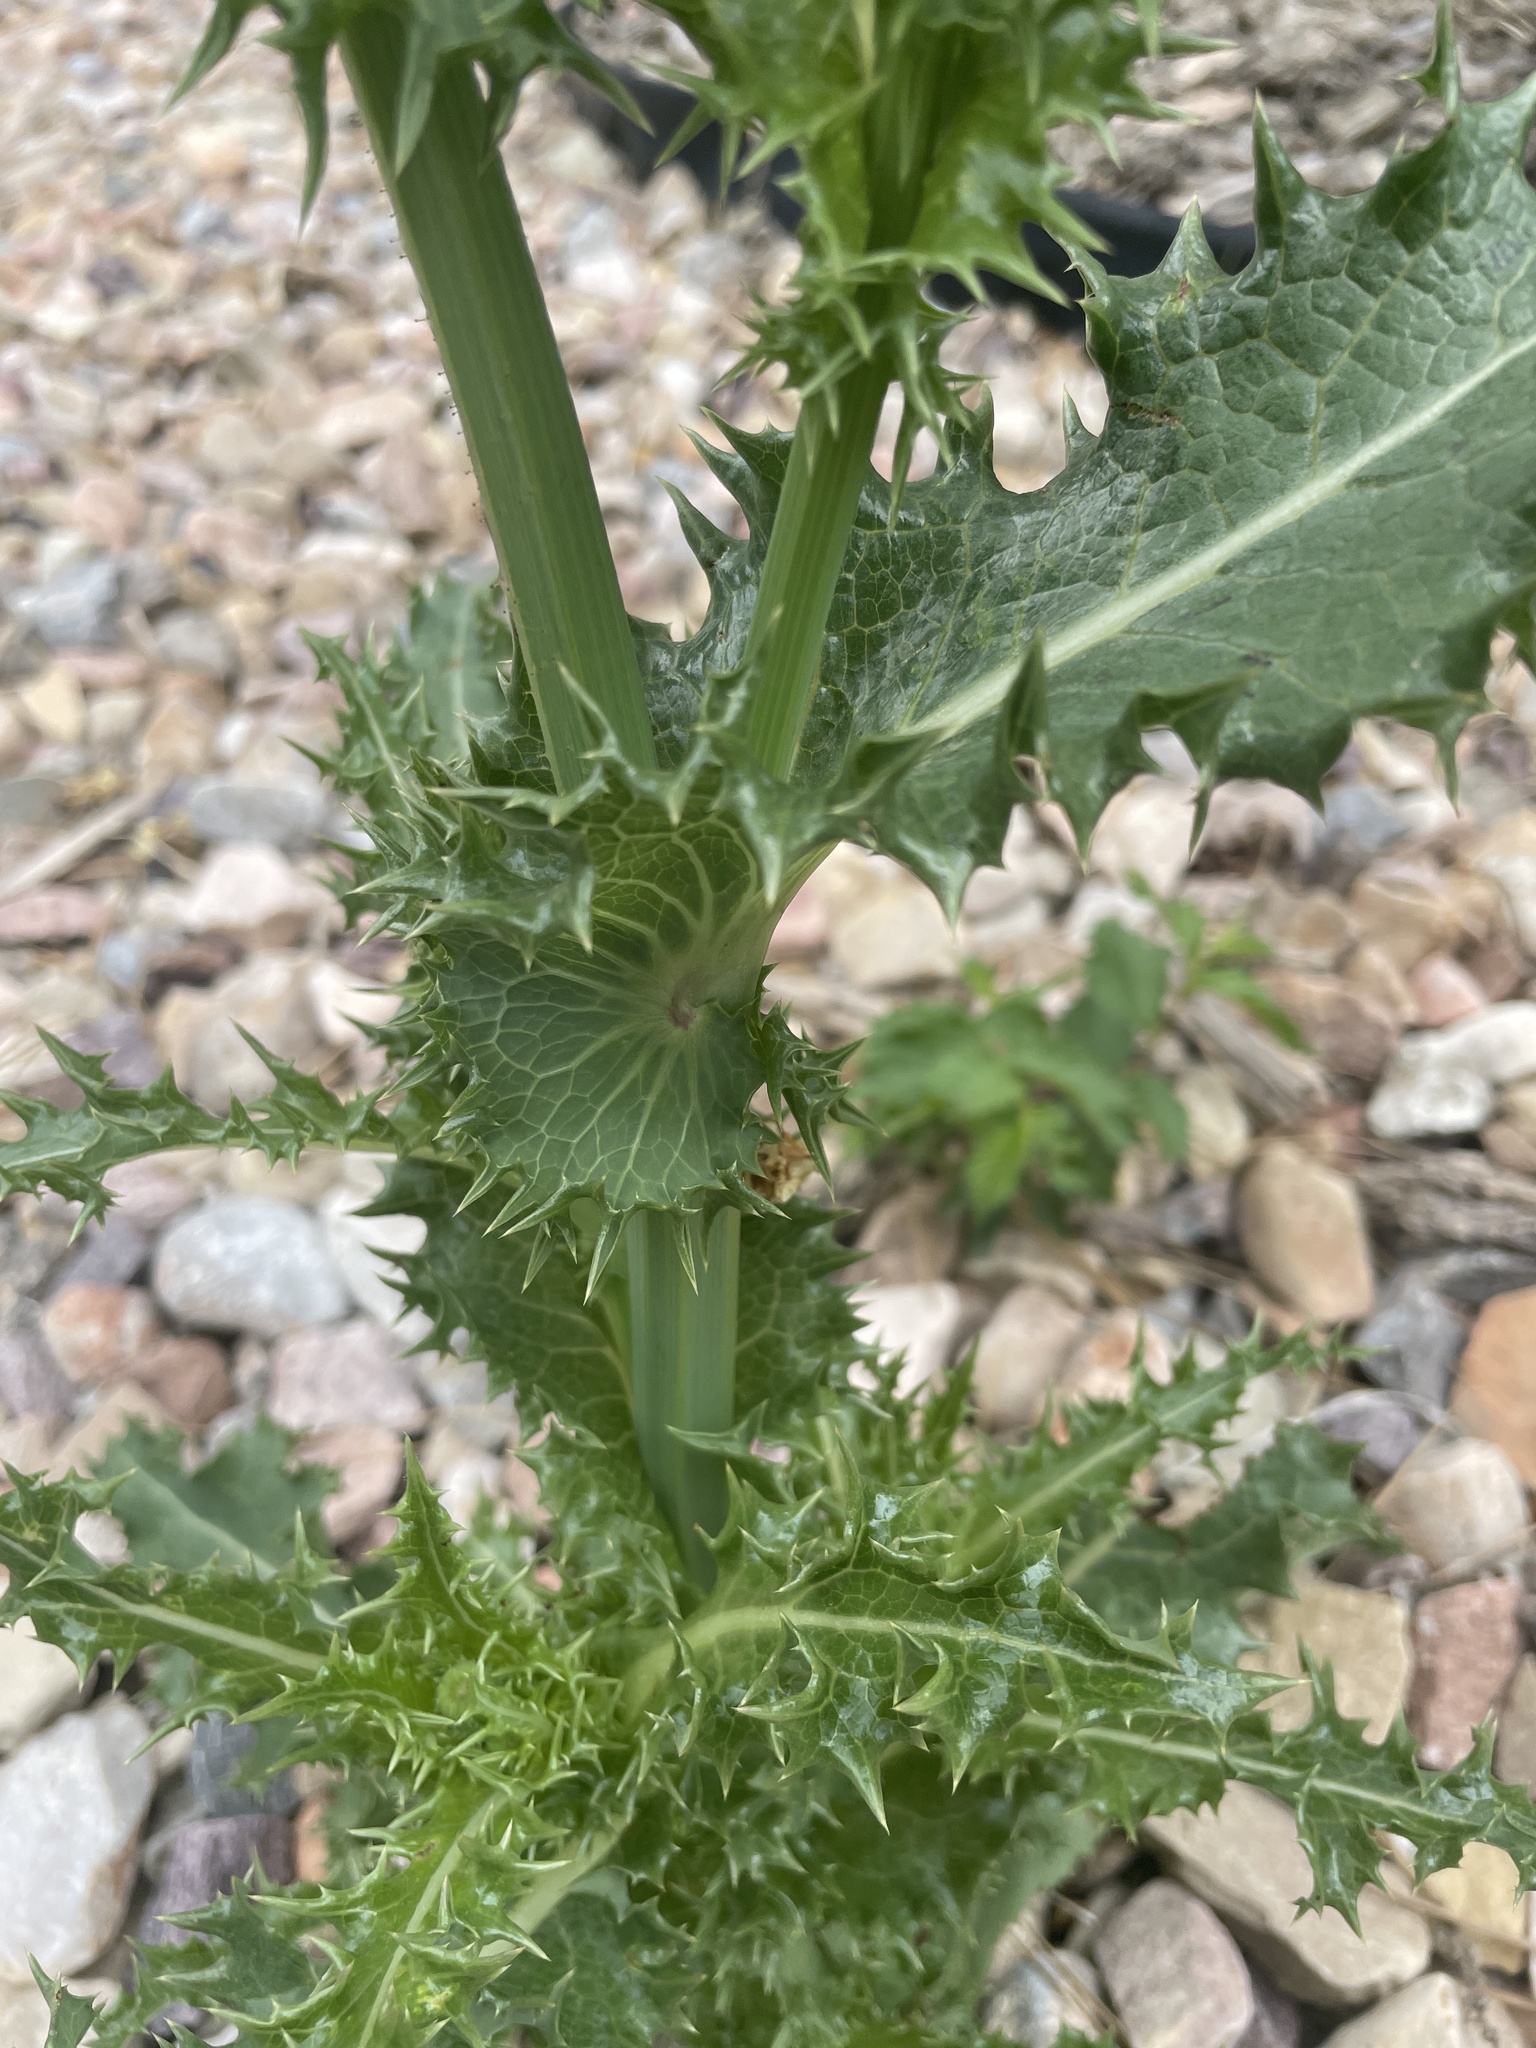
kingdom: Plantae
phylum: Tracheophyta
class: Magnoliopsida
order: Asterales
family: Asteraceae
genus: Sonchus
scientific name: Sonchus asper
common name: Prickly sow-thistle
